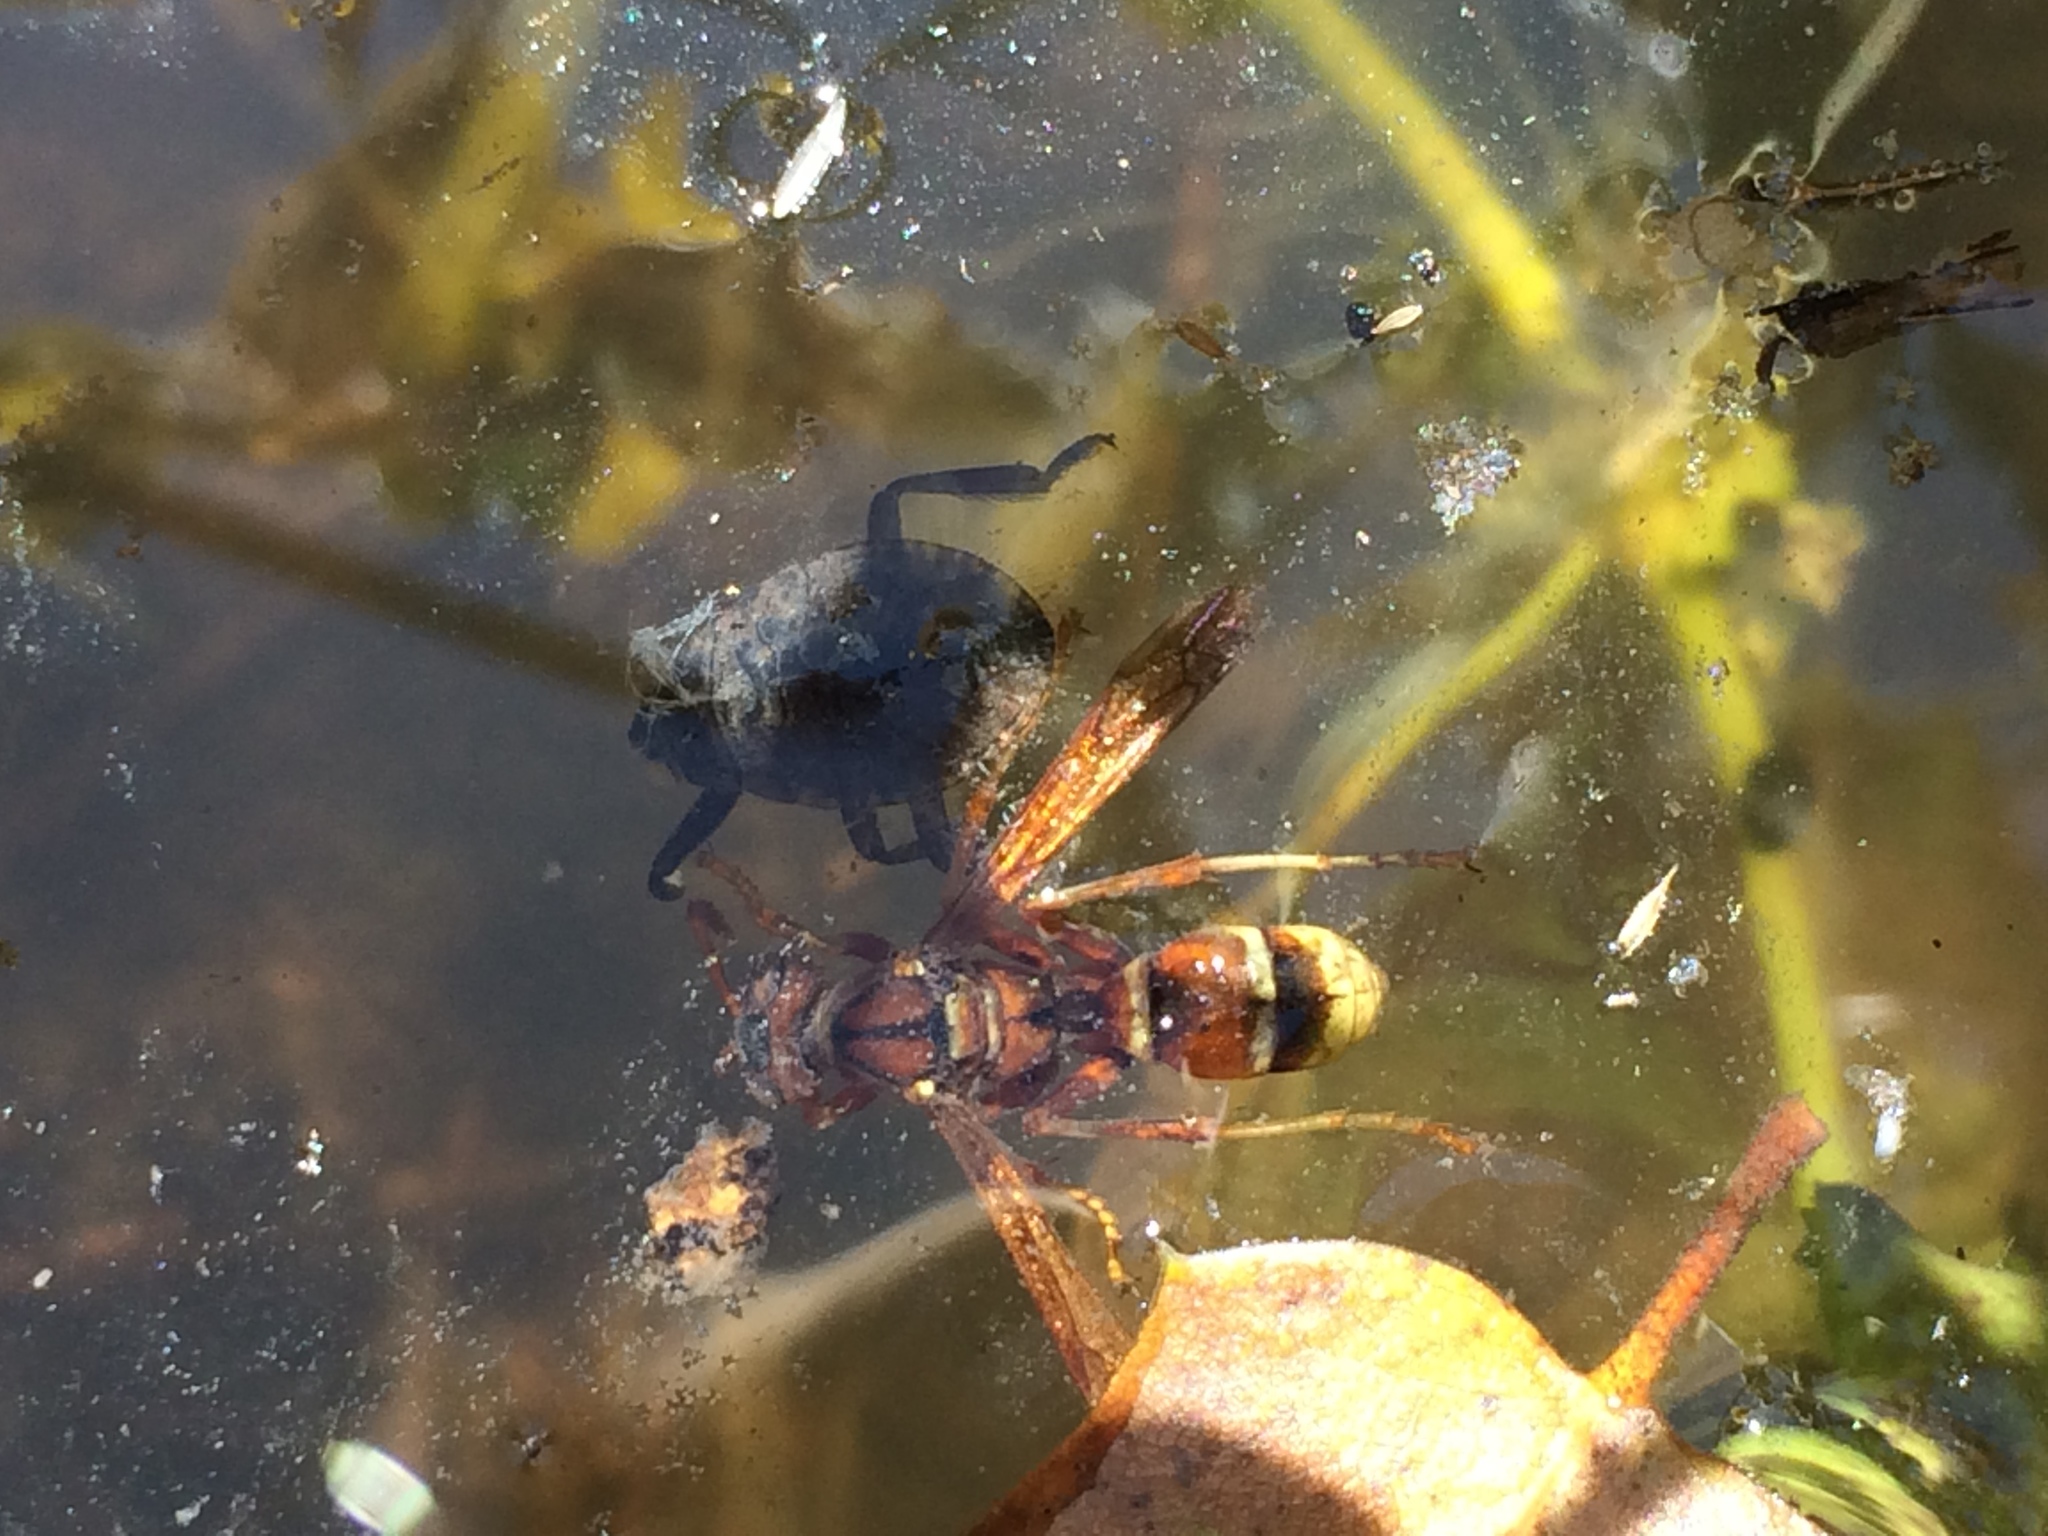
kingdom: Animalia
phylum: Arthropoda
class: Insecta
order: Hymenoptera
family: Eumenidae
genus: Polistes
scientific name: Polistes dorsalis
